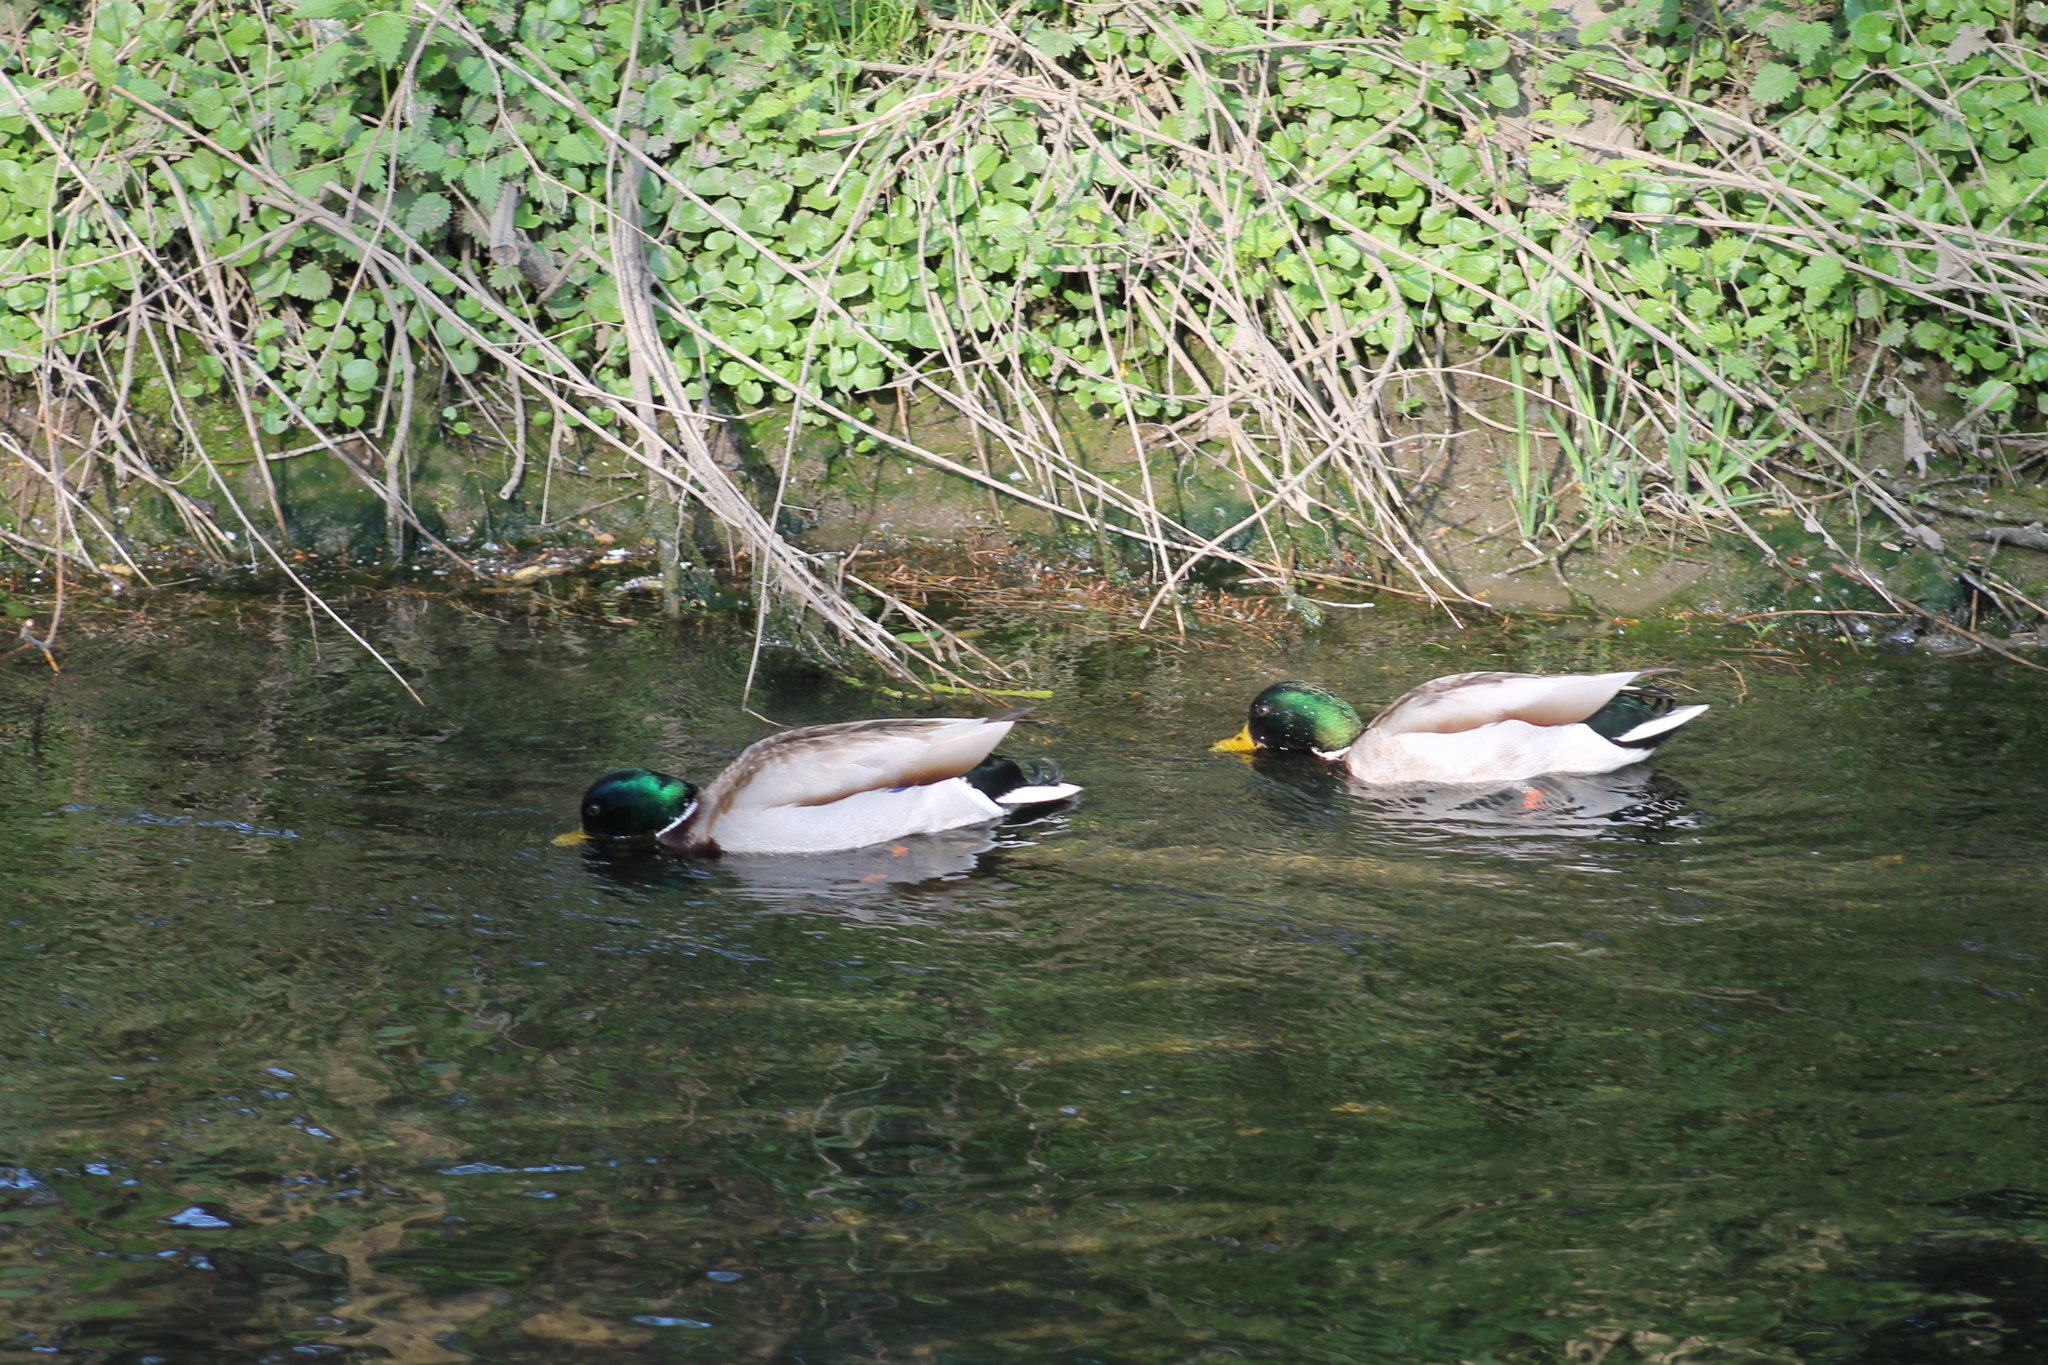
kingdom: Animalia
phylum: Chordata
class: Aves
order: Anseriformes
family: Anatidae
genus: Anas
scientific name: Anas platyrhynchos
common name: Mallard
